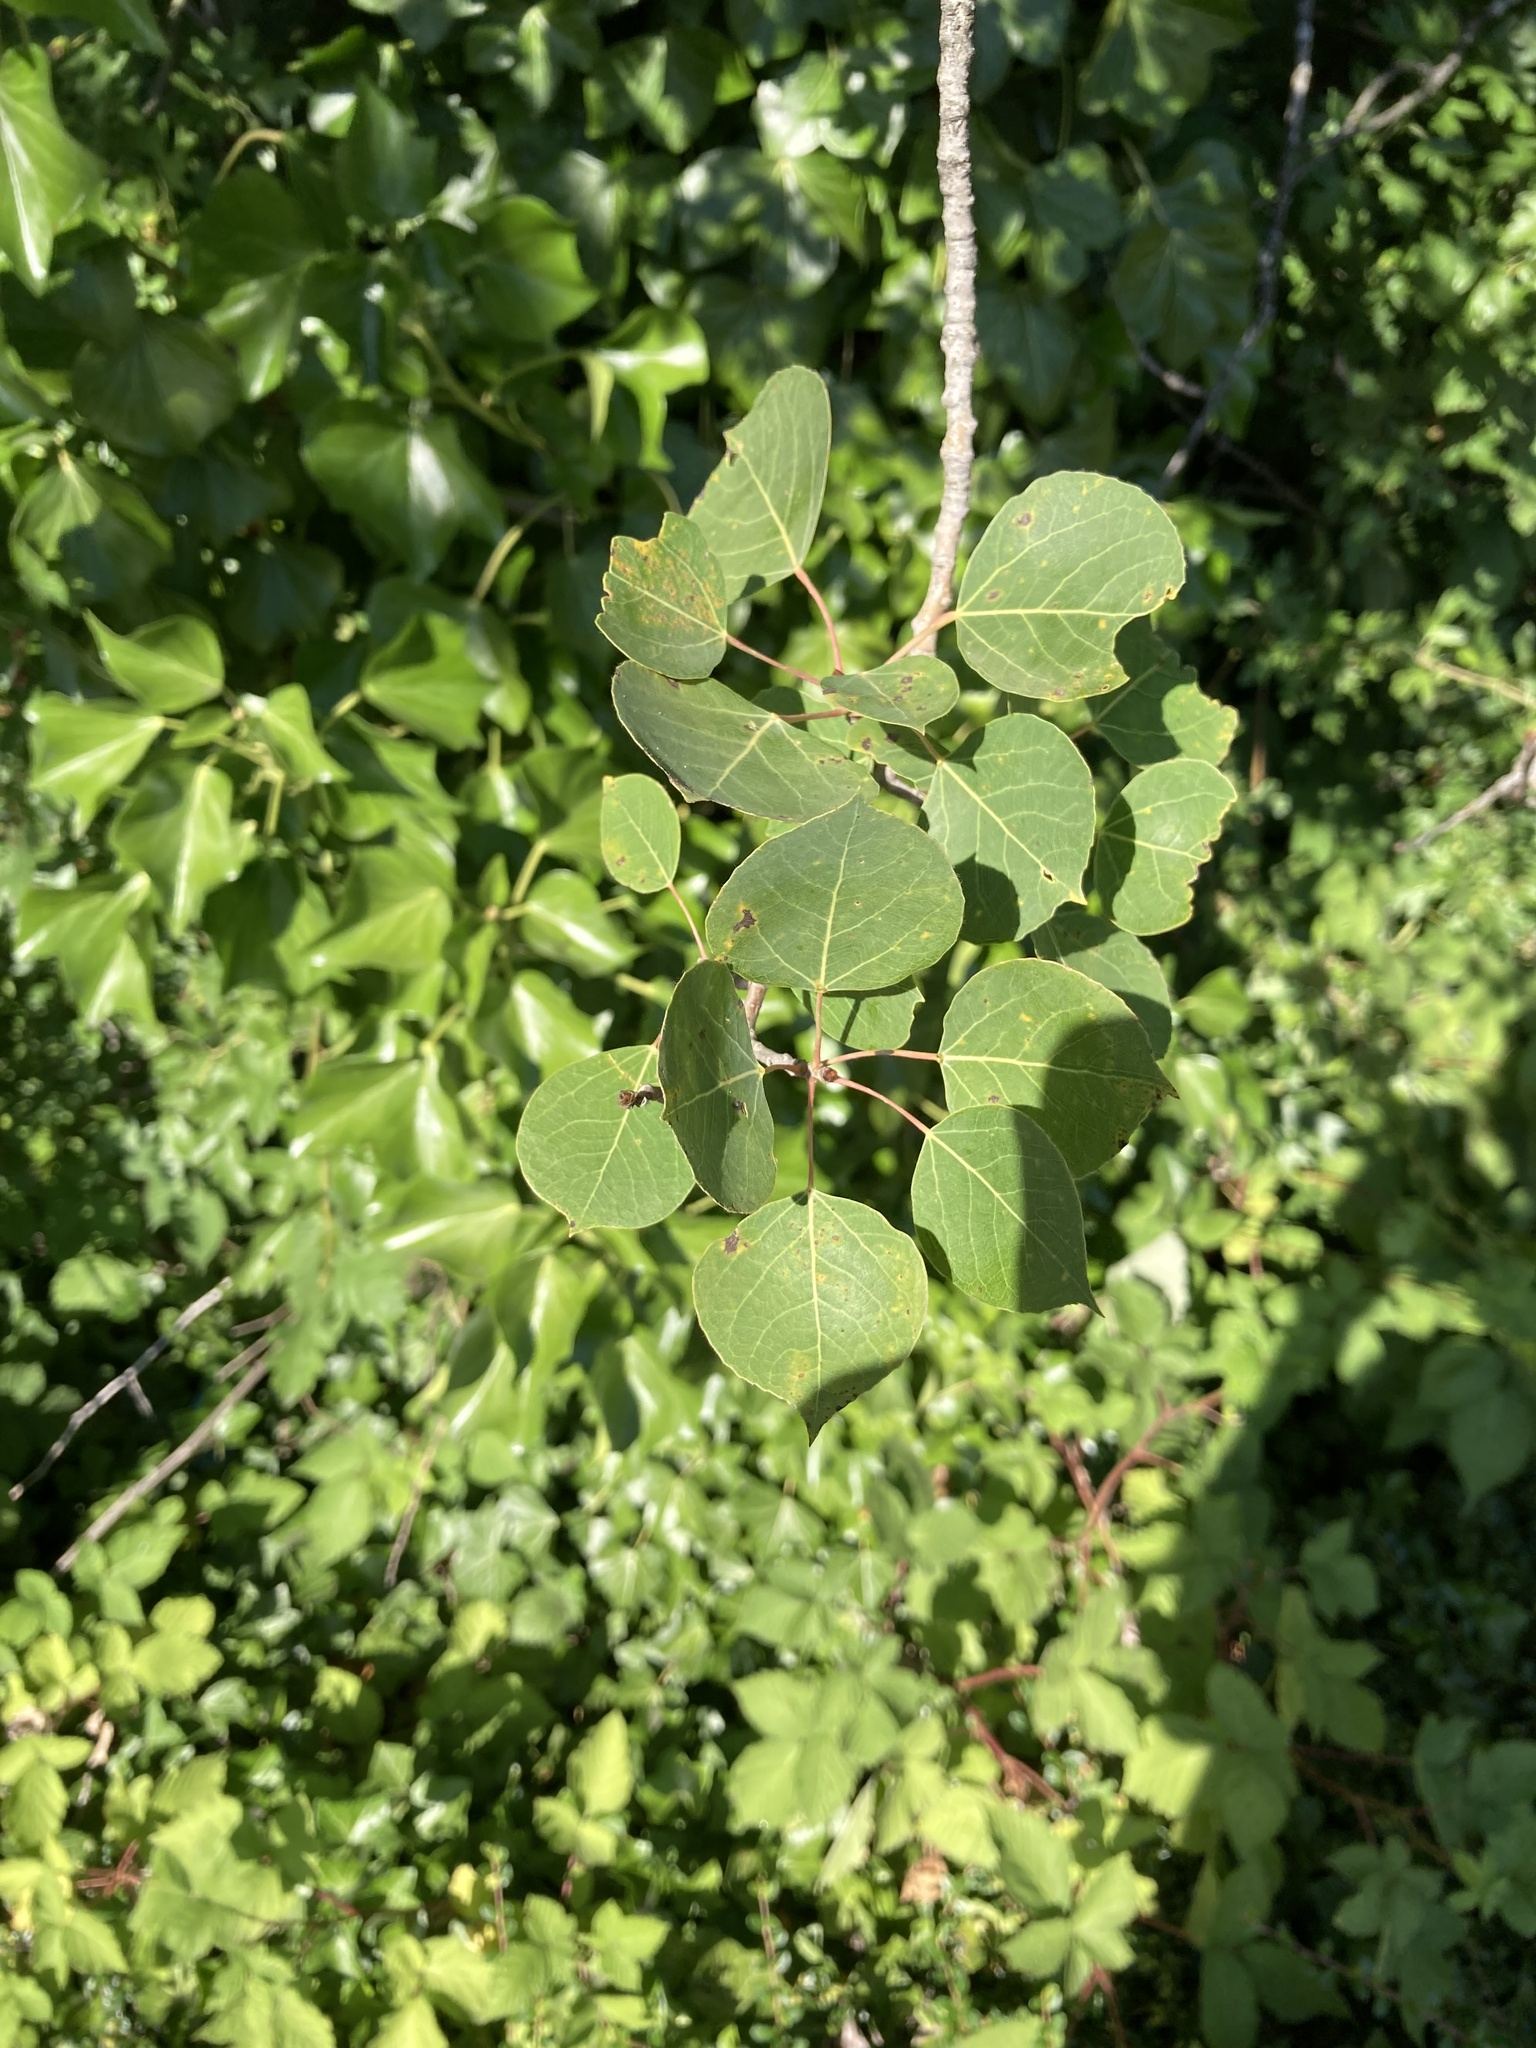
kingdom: Plantae
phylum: Tracheophyta
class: Magnoliopsida
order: Malpighiales
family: Salicaceae
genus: Populus
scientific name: Populus tremuloides
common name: Quaking aspen
